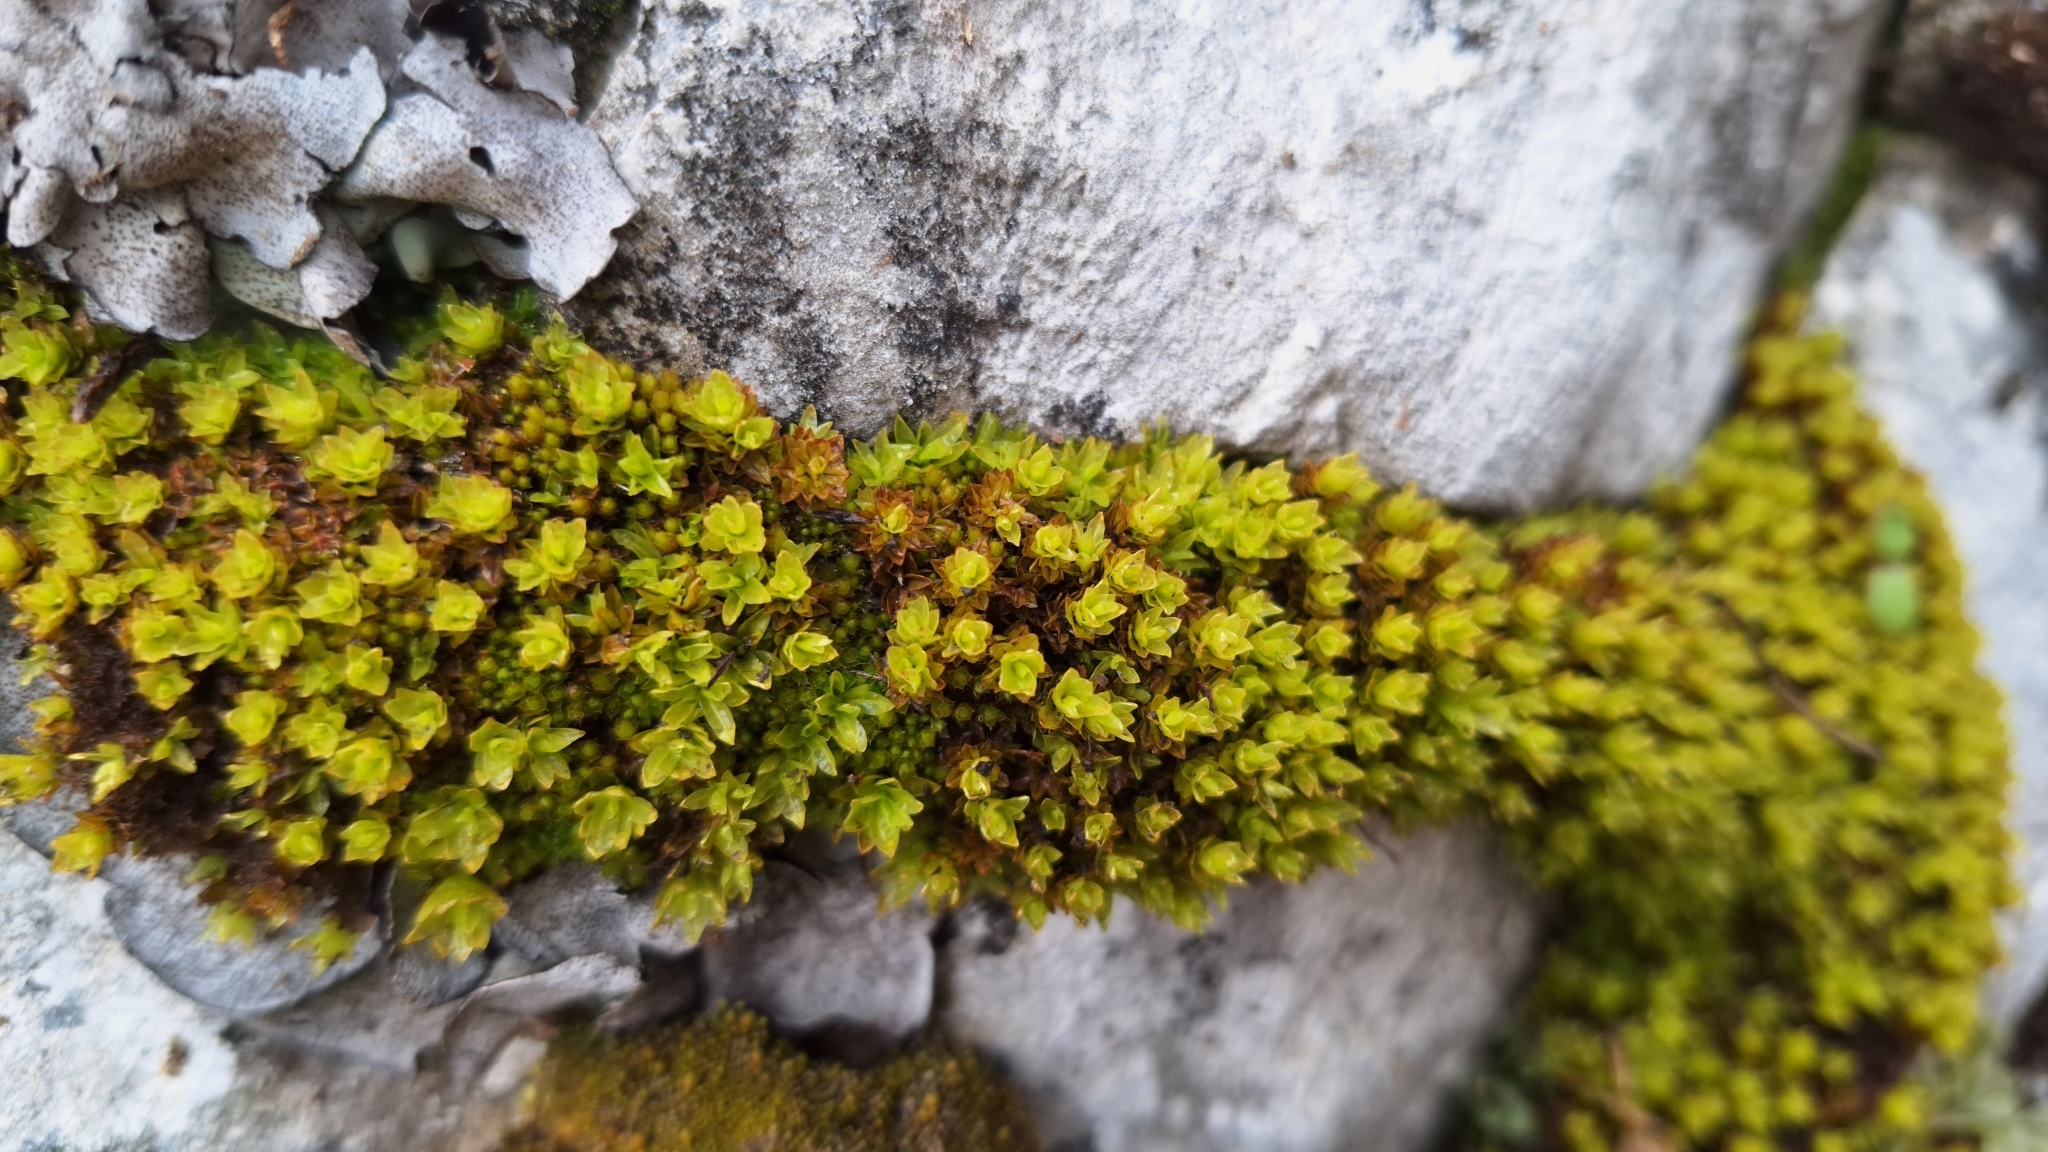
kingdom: Plantae
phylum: Bryophyta
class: Bryopsida
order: Encalyptales
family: Encalyptaceae
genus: Encalypta
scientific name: Encalypta streptocarpa
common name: Spiral extinguisher-moss
